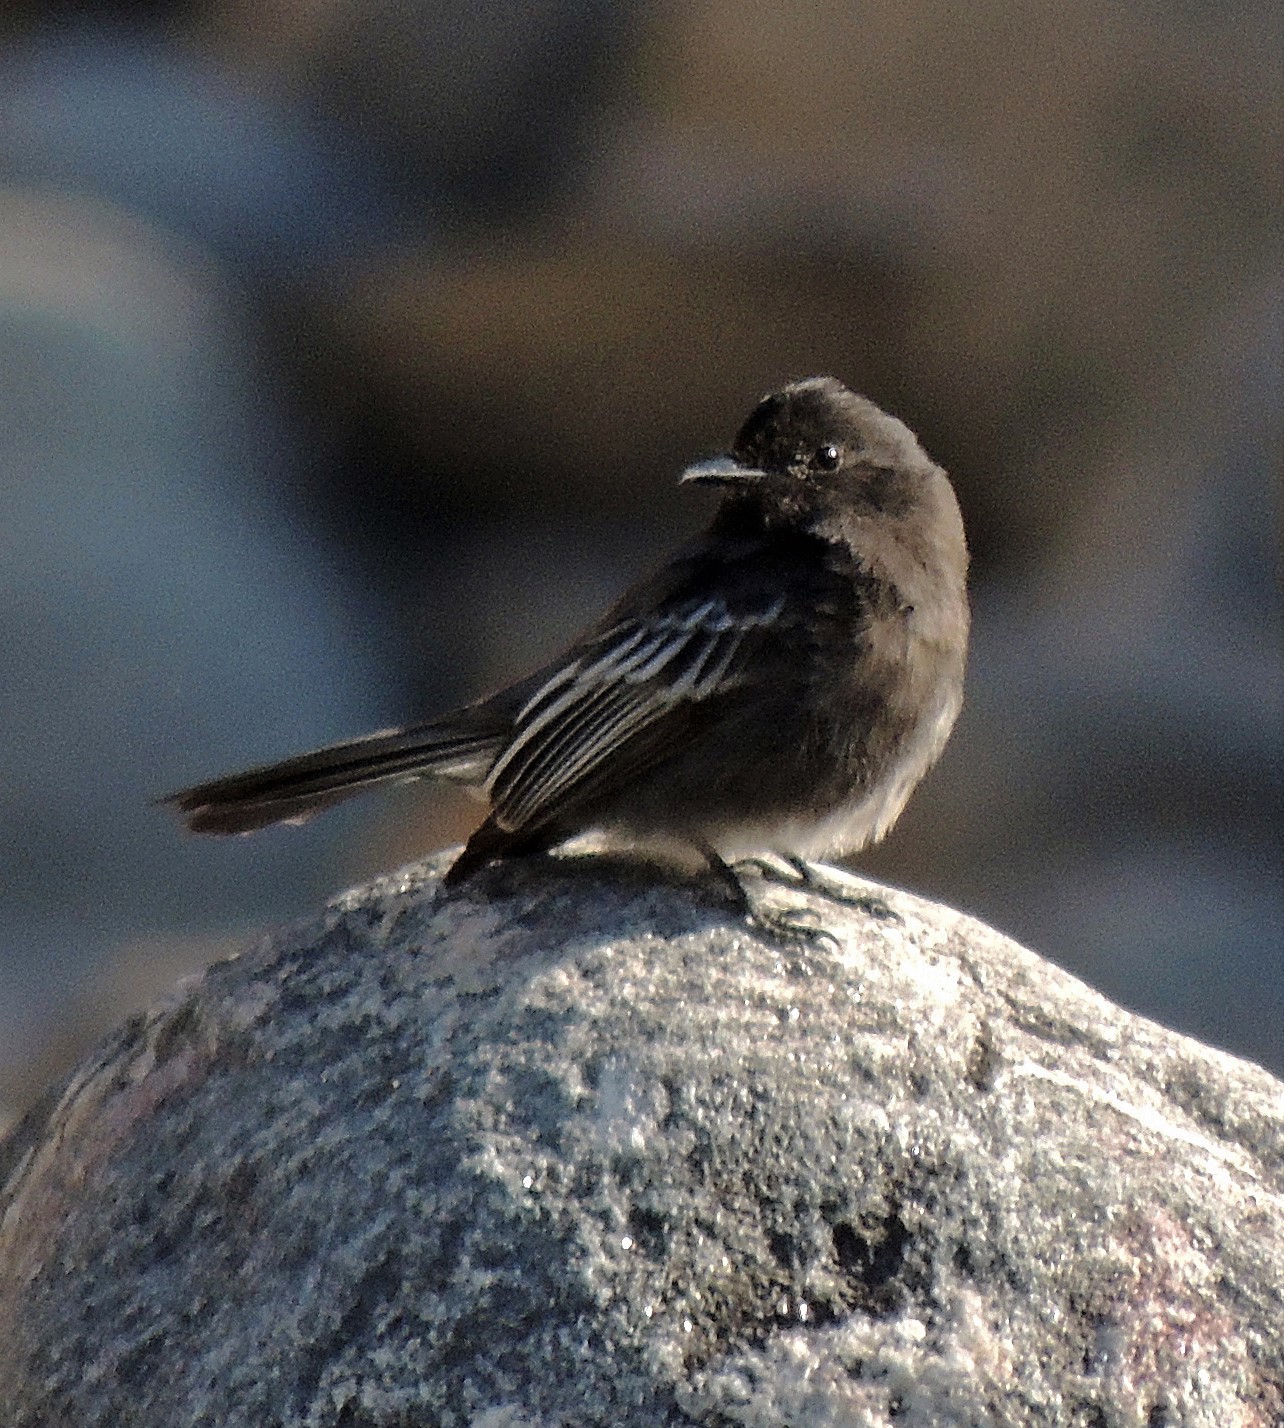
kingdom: Animalia
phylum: Chordata
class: Aves
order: Passeriformes
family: Tyrannidae
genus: Sayornis
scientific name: Sayornis nigricans
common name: Black phoebe
